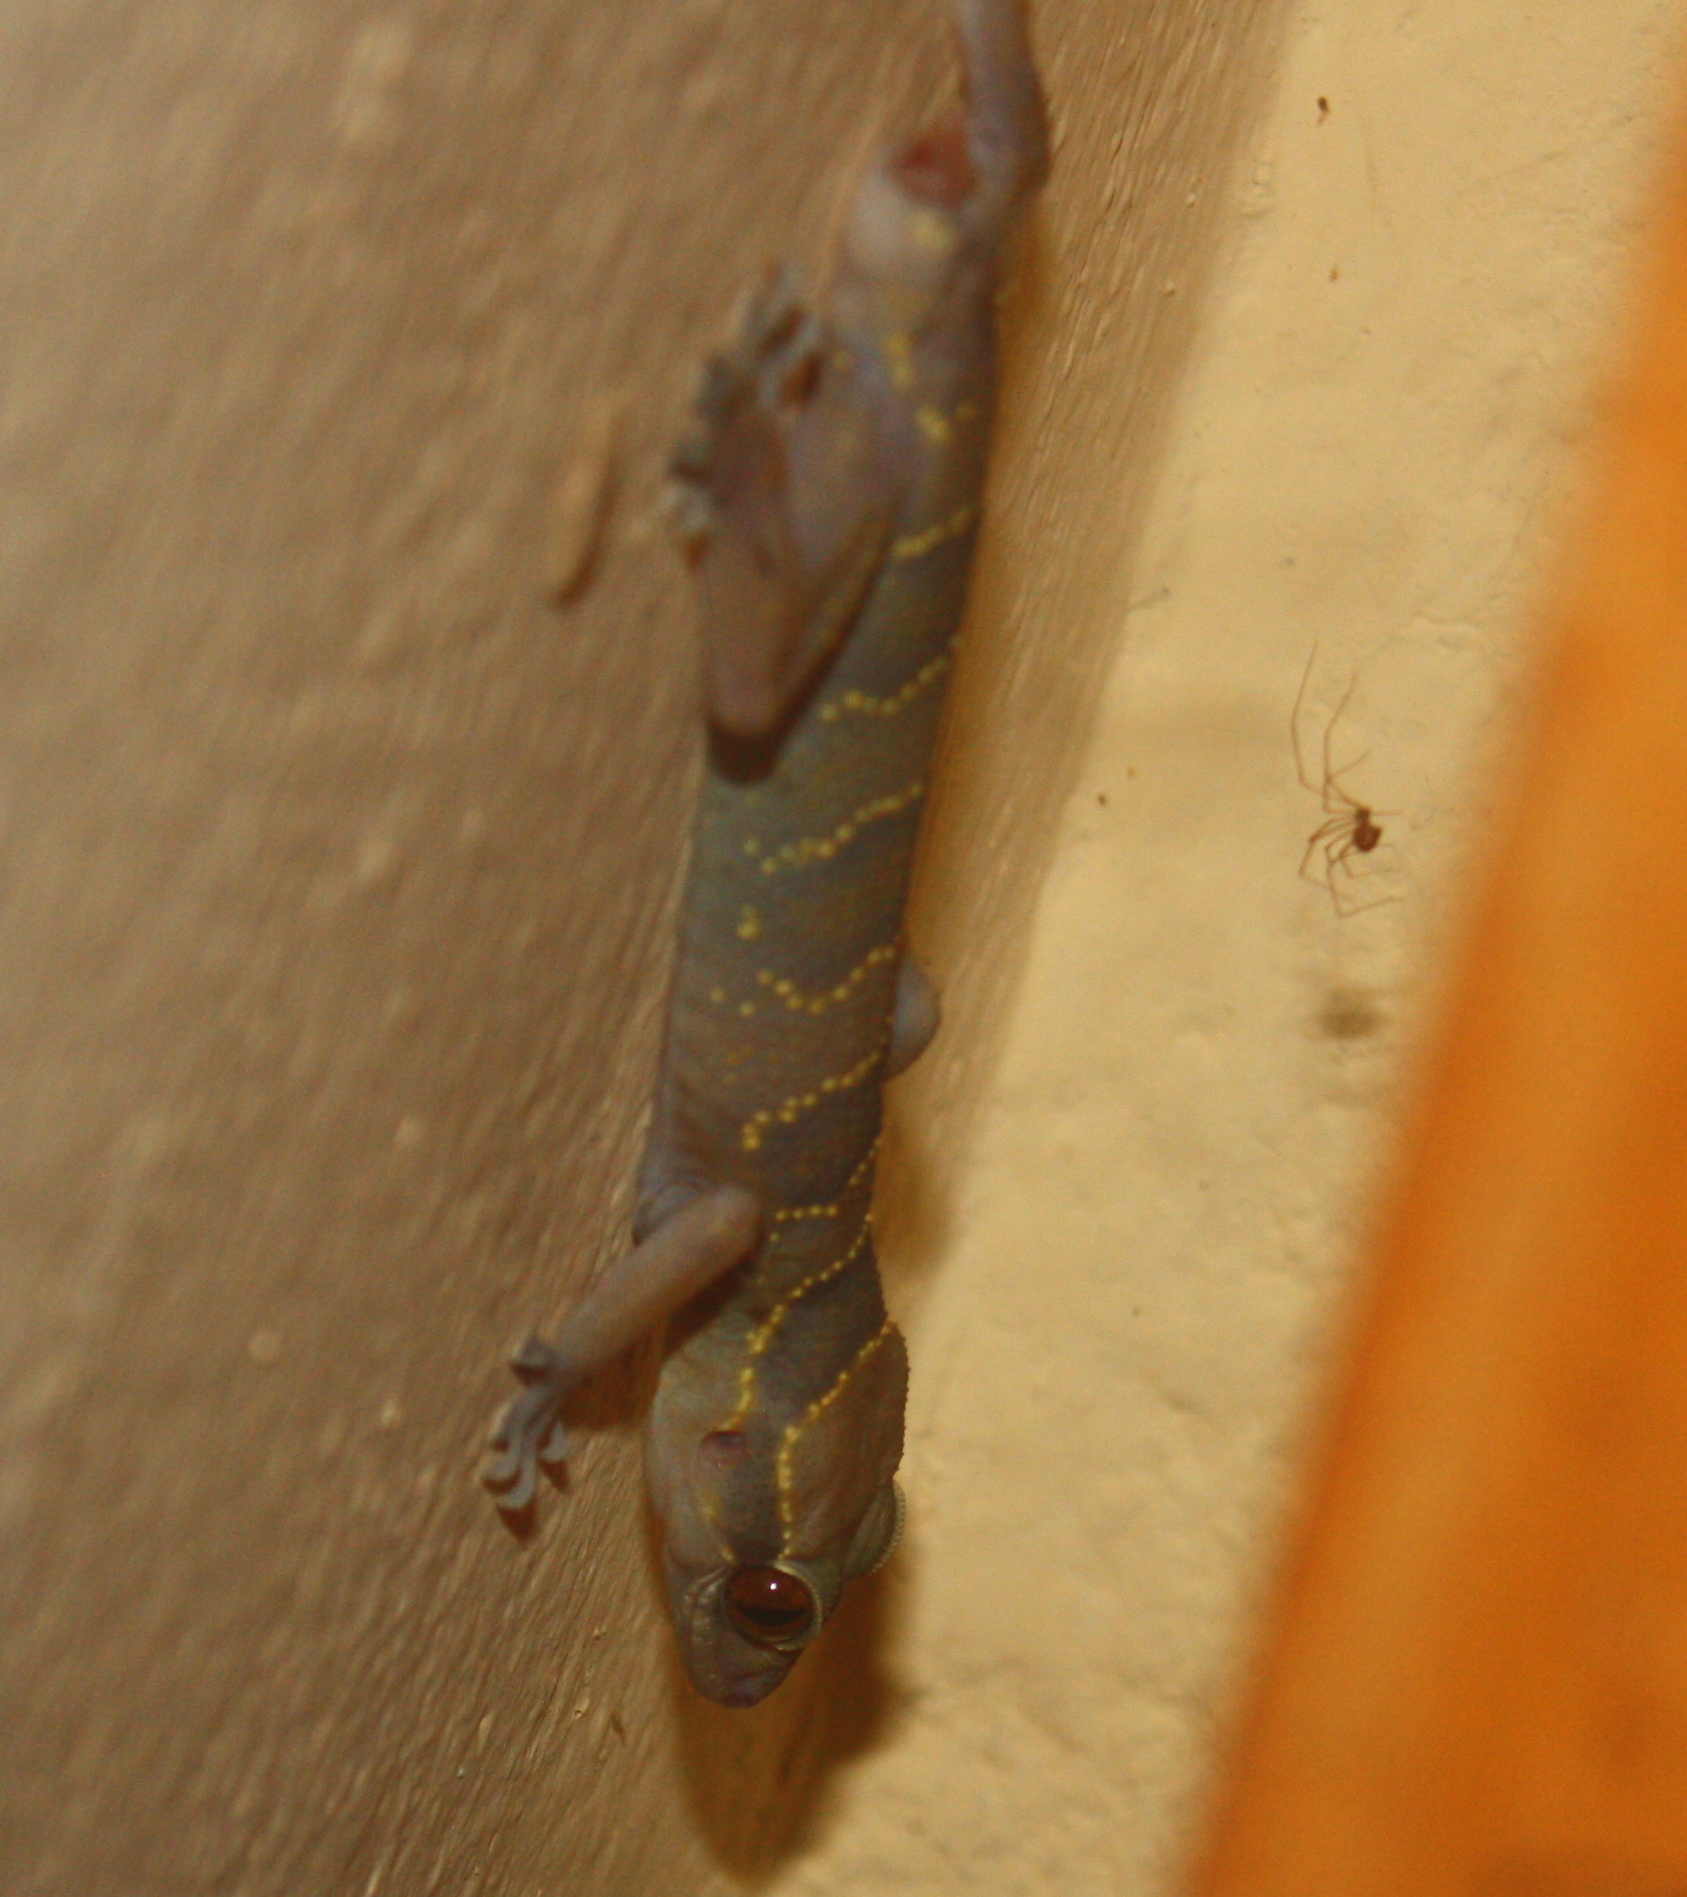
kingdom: Animalia
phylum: Chordata
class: Squamata
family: Gekkonidae
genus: Hemidactylus
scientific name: Hemidactylus fasciatus
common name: Banded leaf-toed gecko
